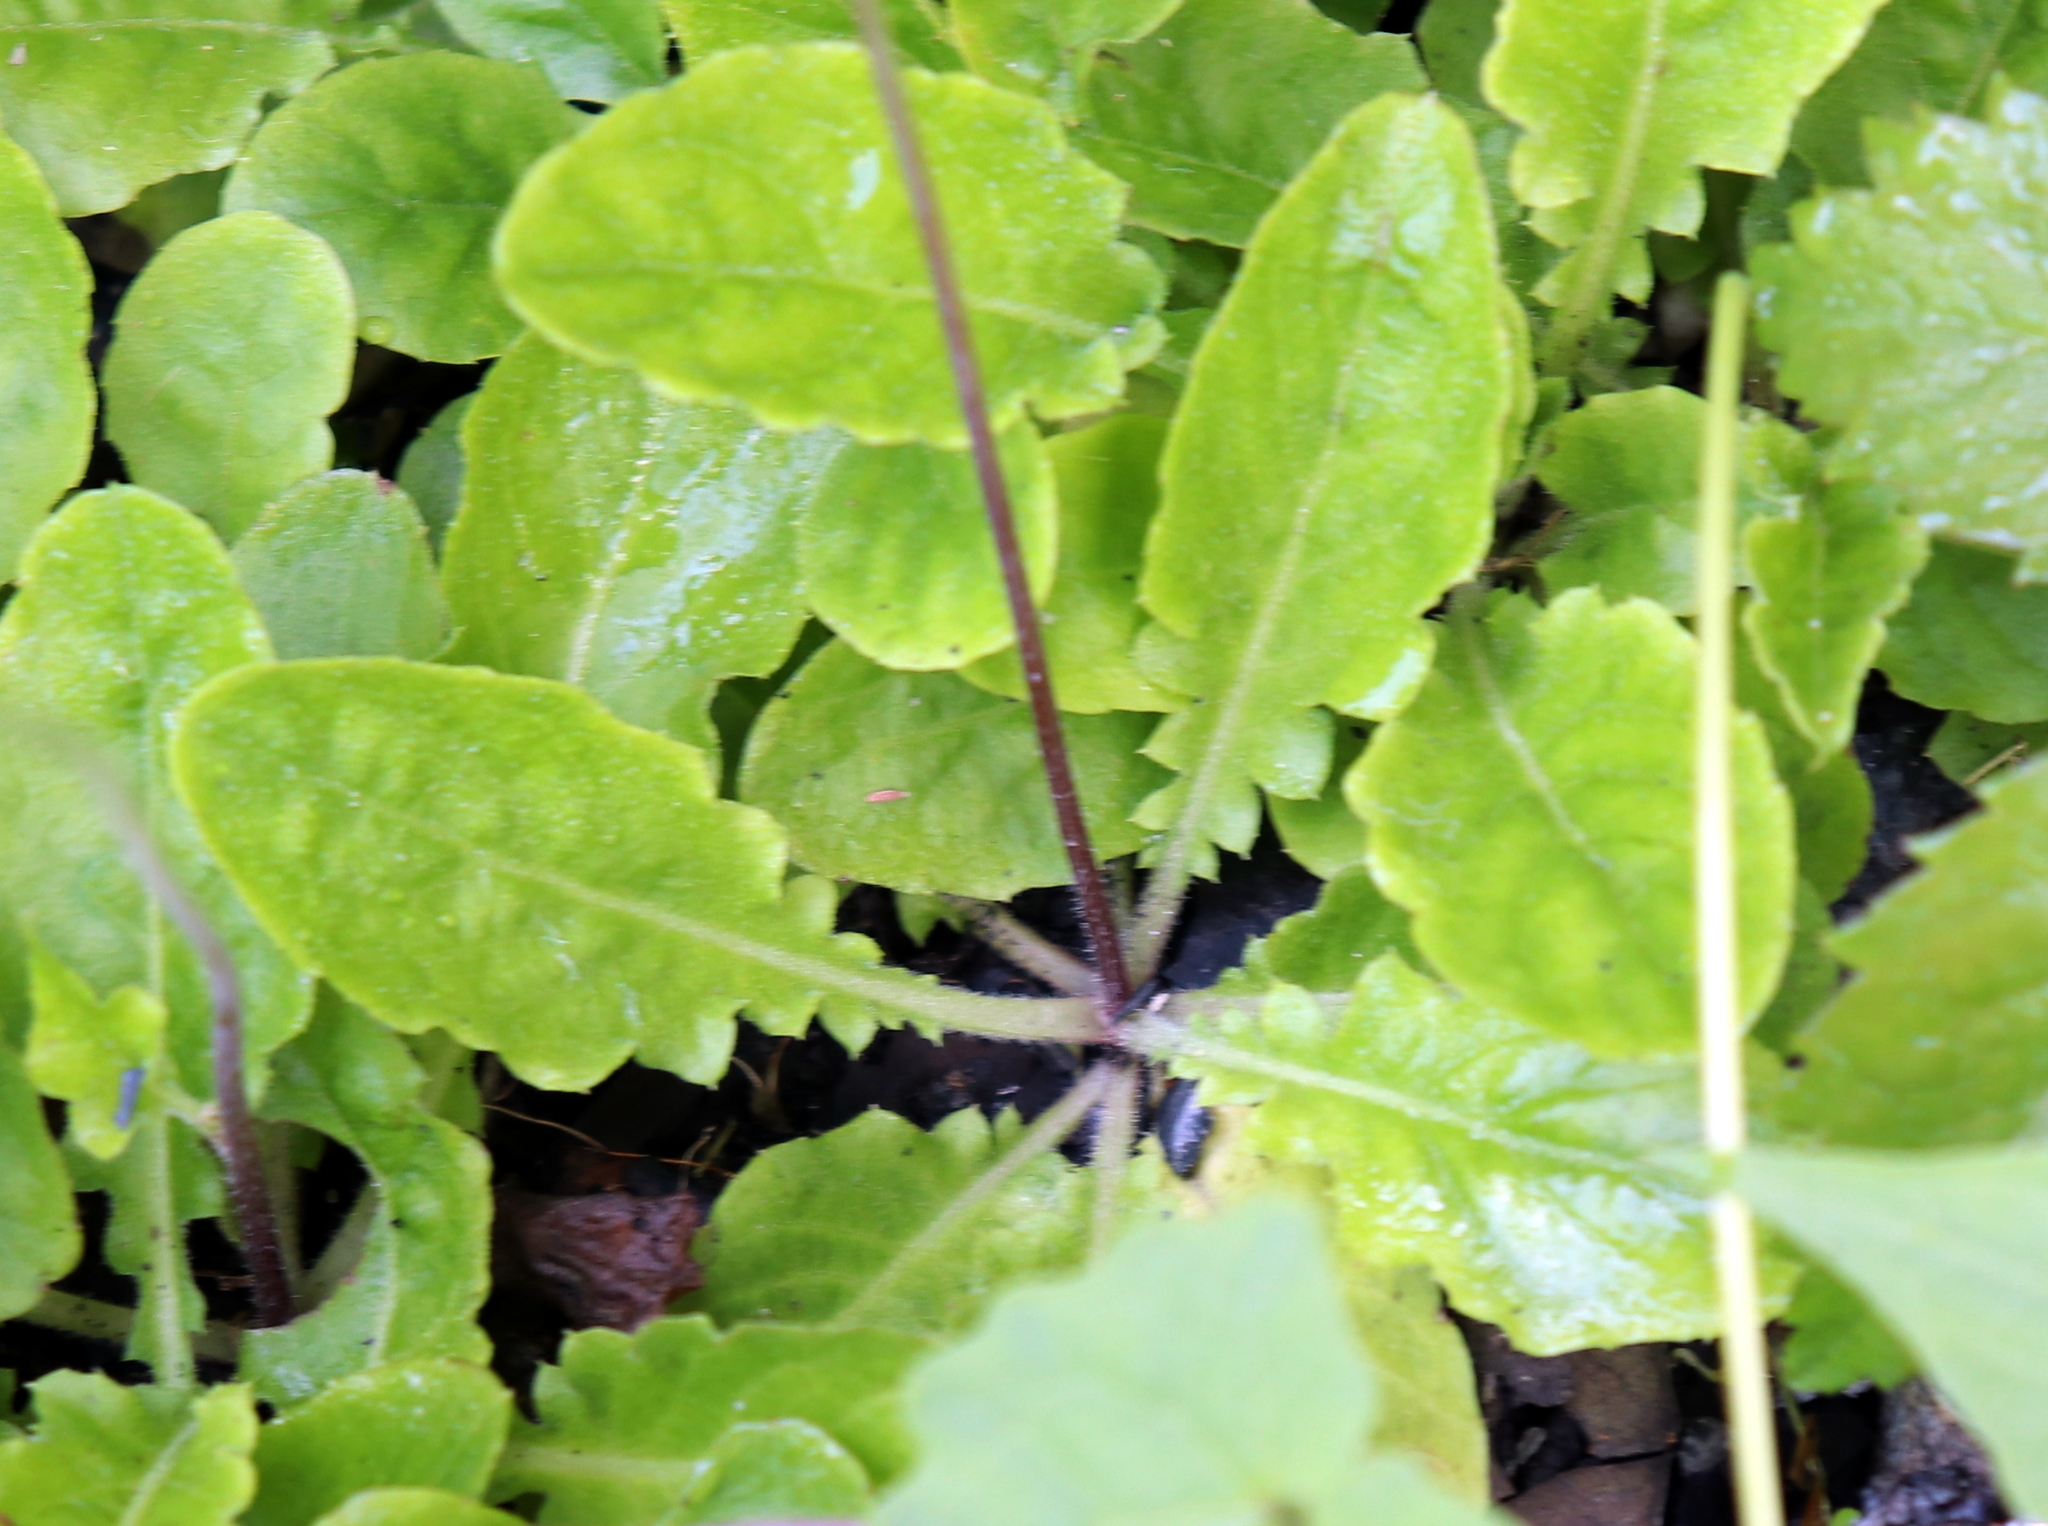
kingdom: Plantae
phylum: Tracheophyta
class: Magnoliopsida
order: Asterales
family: Asteraceae
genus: Youngia
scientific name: Youngia japonica
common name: Oriental false hawksbeard
